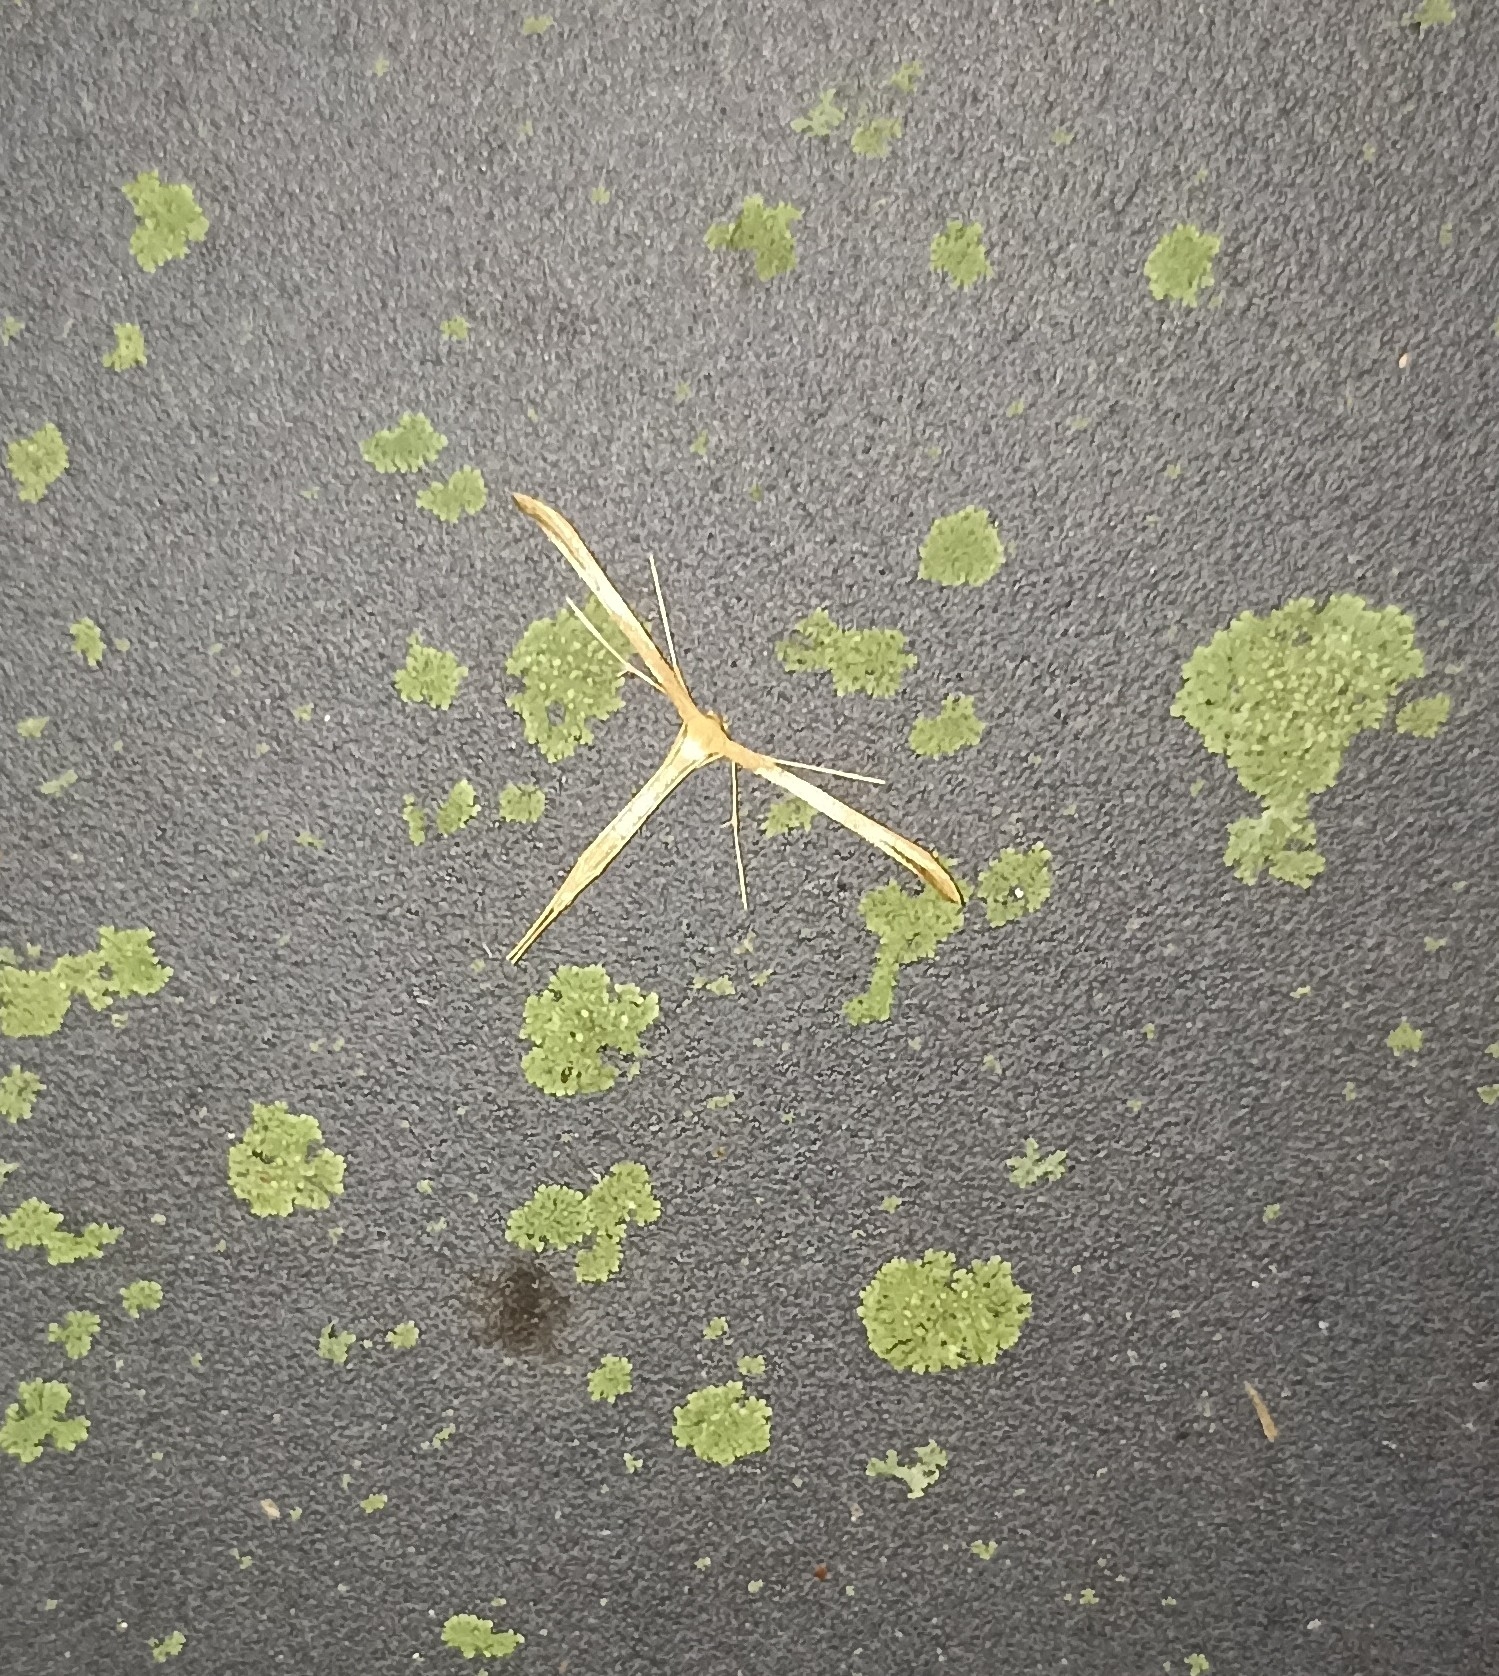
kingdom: Animalia
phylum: Arthropoda
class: Insecta
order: Lepidoptera
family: Pterophoridae
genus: Emmelina
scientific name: Emmelina monodactyla
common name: Common plume
